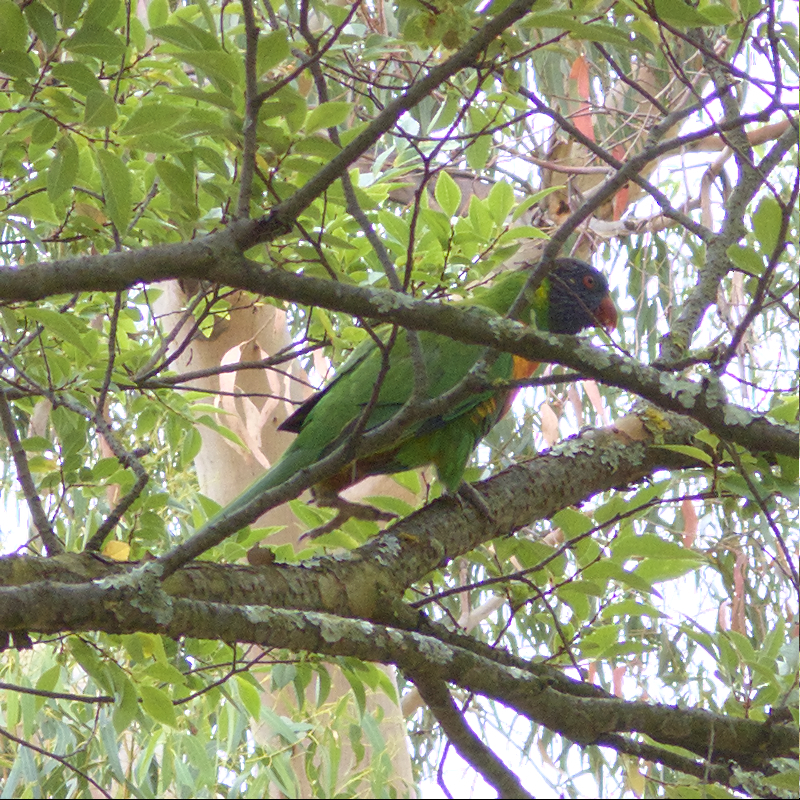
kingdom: Animalia
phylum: Chordata
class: Aves
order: Psittaciformes
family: Psittacidae
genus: Trichoglossus
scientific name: Trichoglossus haematodus
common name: Coconut lorikeet
